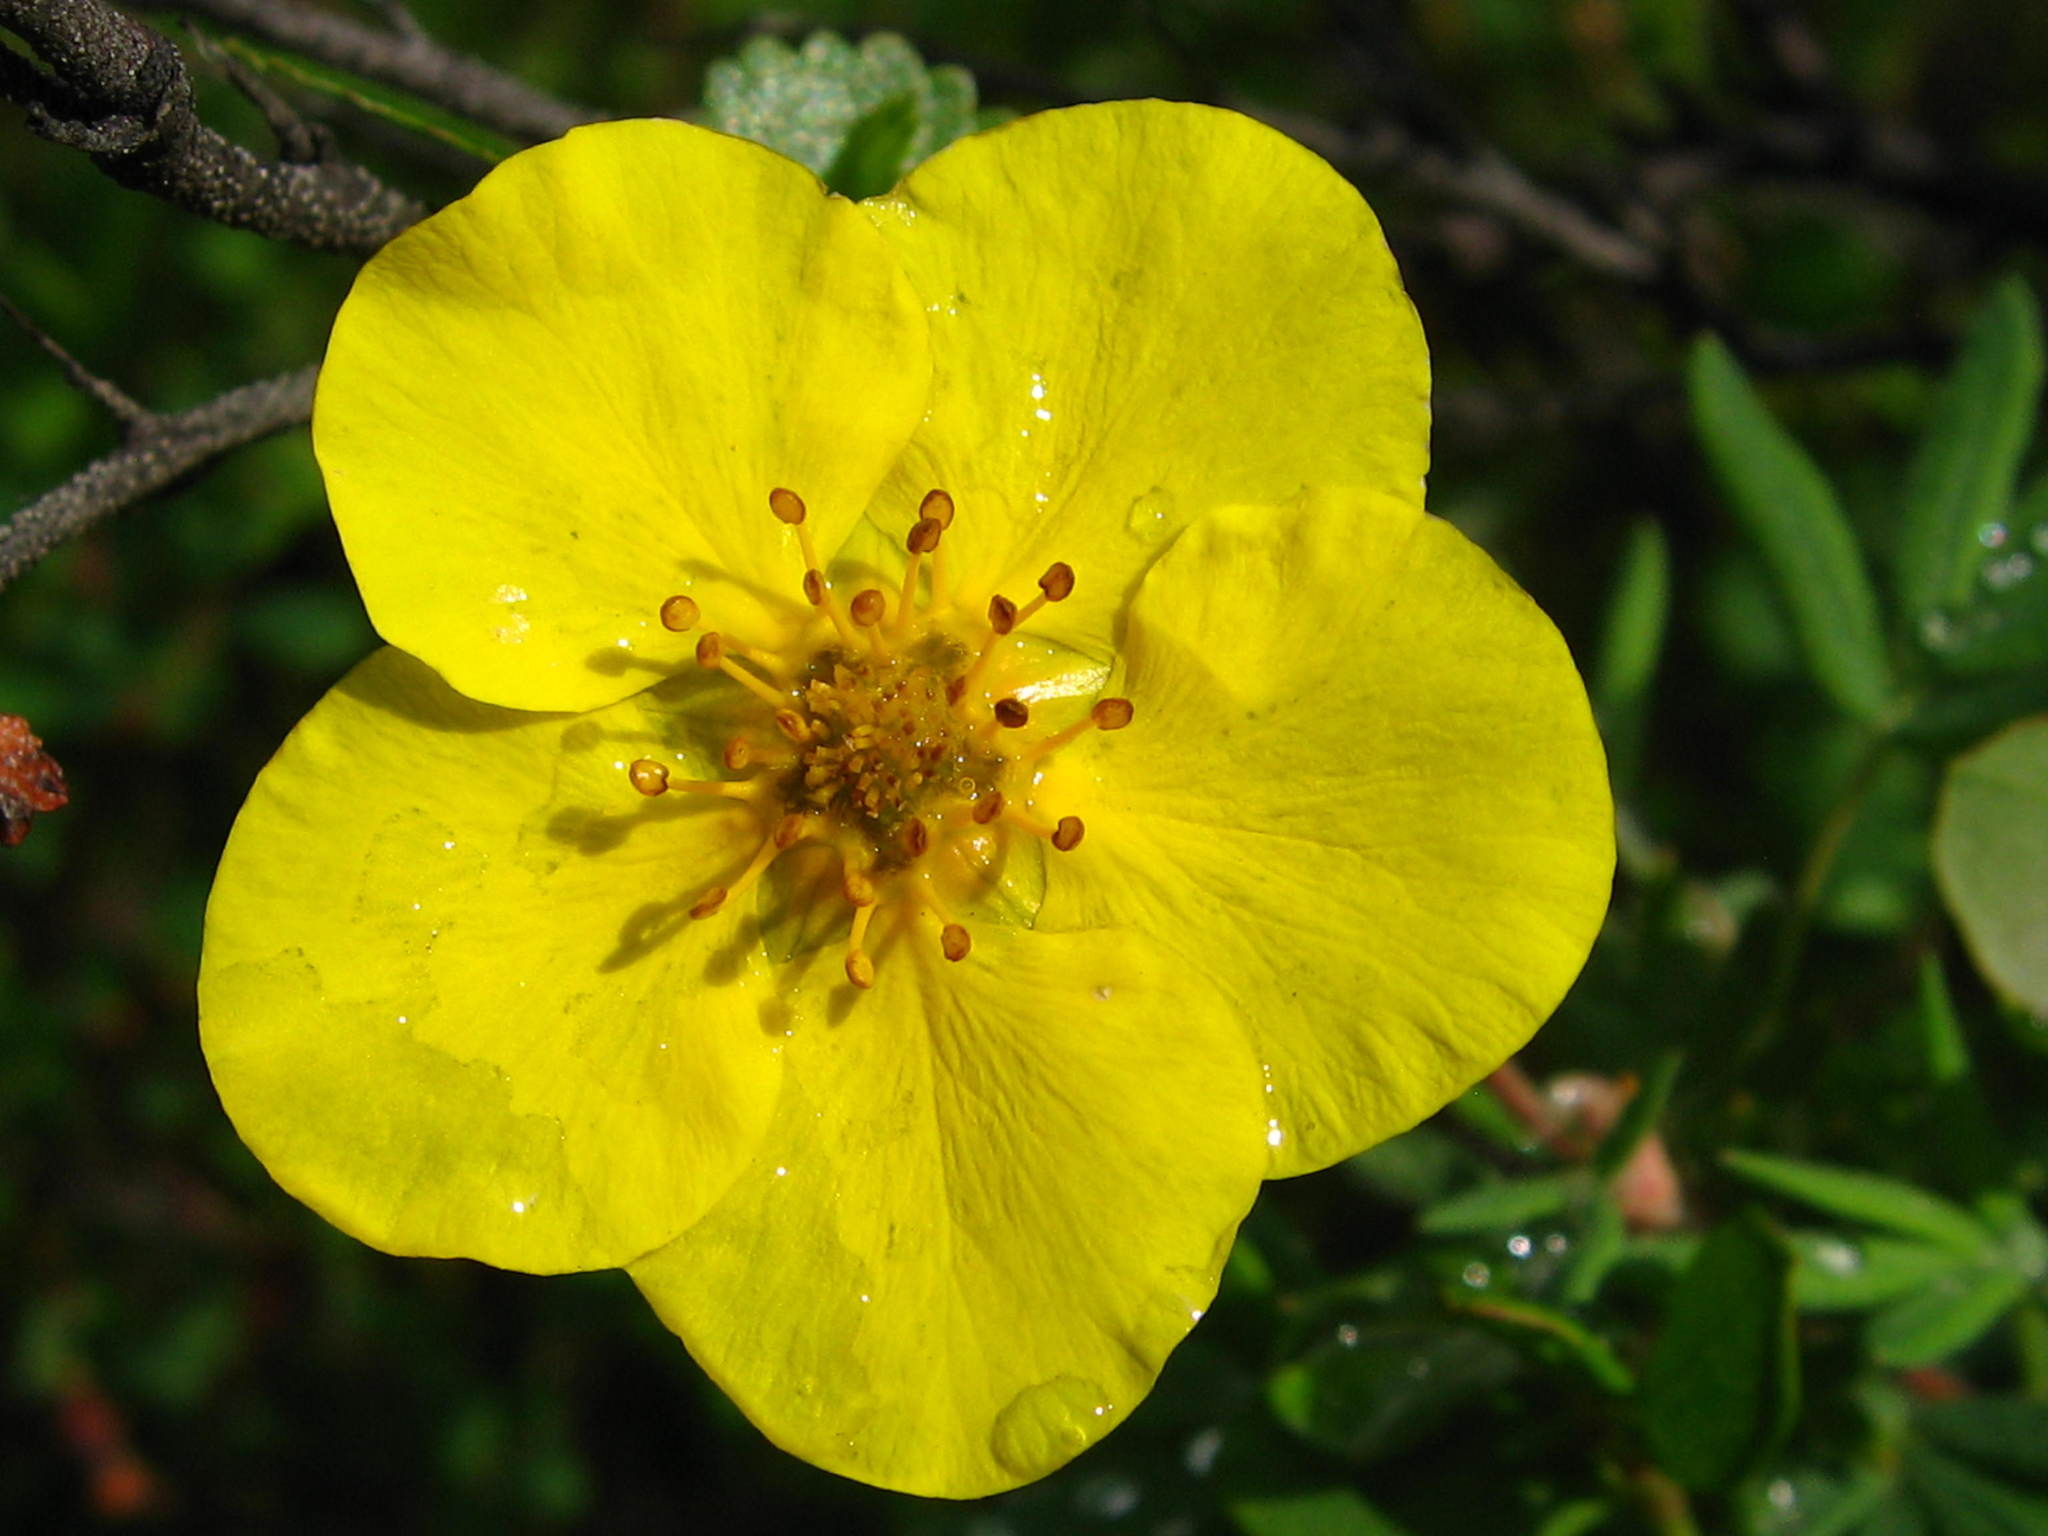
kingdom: Plantae
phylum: Tracheophyta
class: Magnoliopsida
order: Rosales
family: Rosaceae
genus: Dasiphora
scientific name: Dasiphora fruticosa
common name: Shrubby cinquefoil
